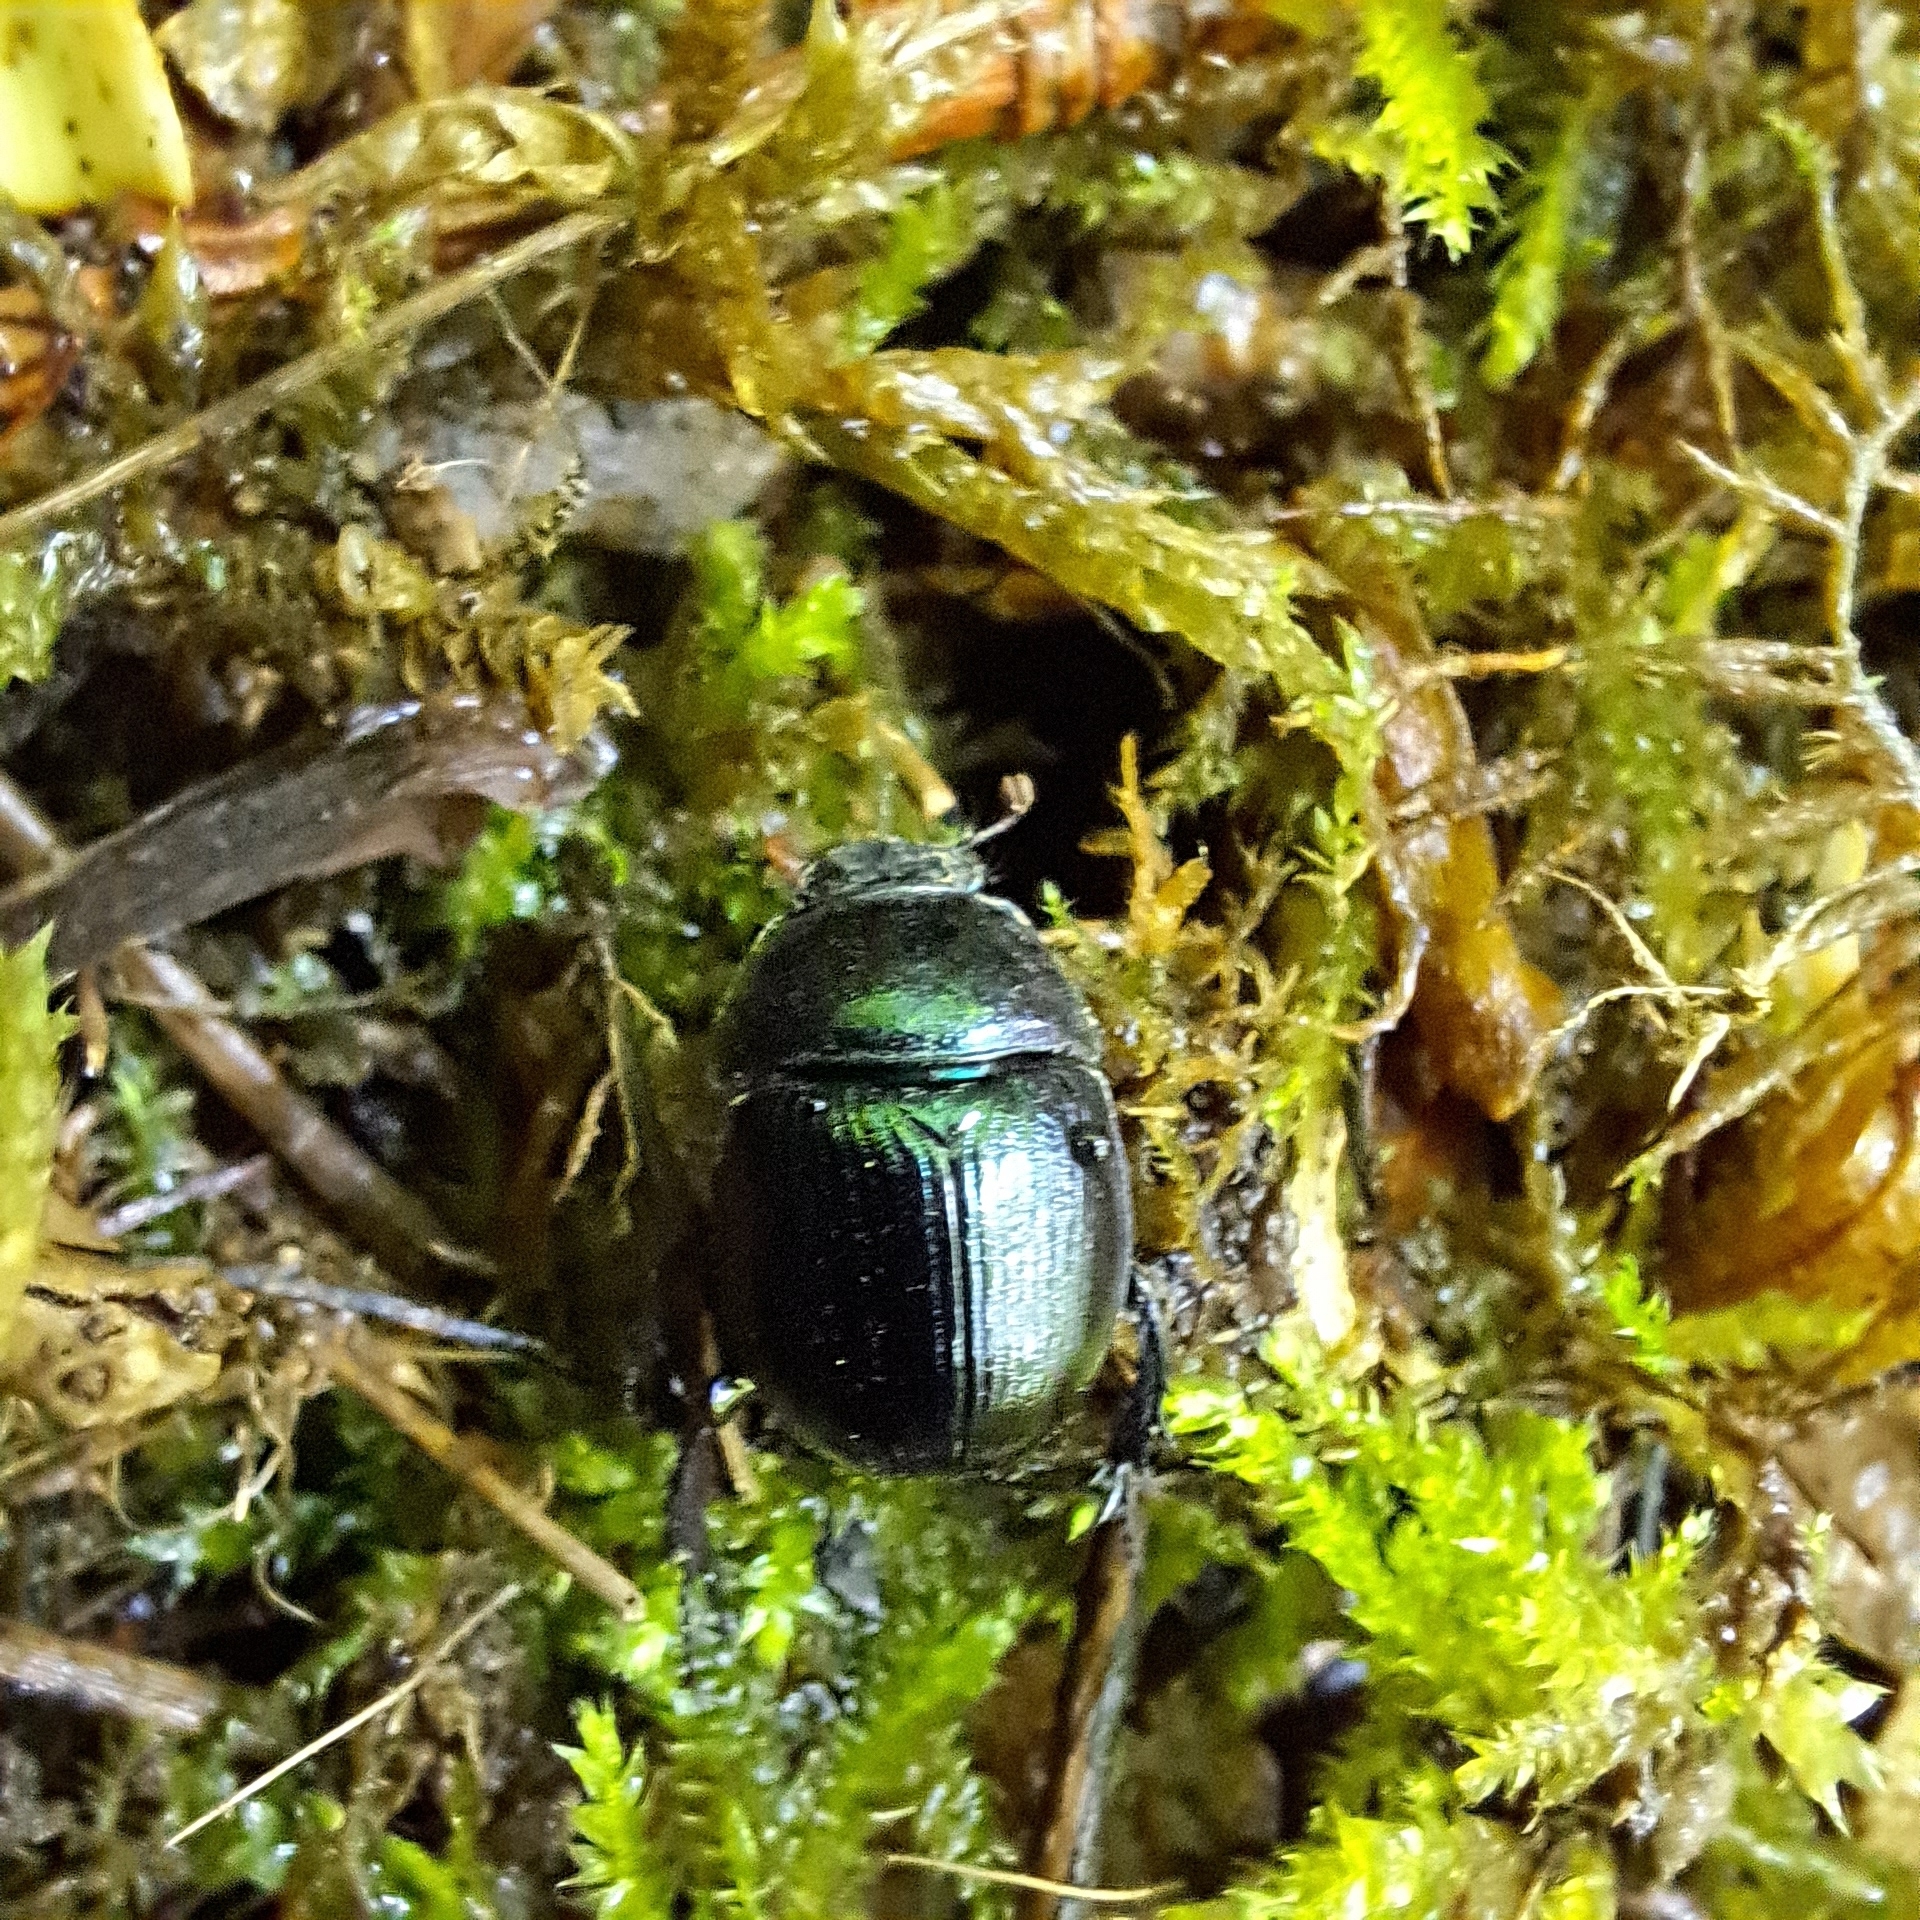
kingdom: Animalia
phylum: Arthropoda
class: Insecta
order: Coleoptera
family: Geotrupidae
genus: Anoplotrupes
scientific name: Anoplotrupes stercorosus
